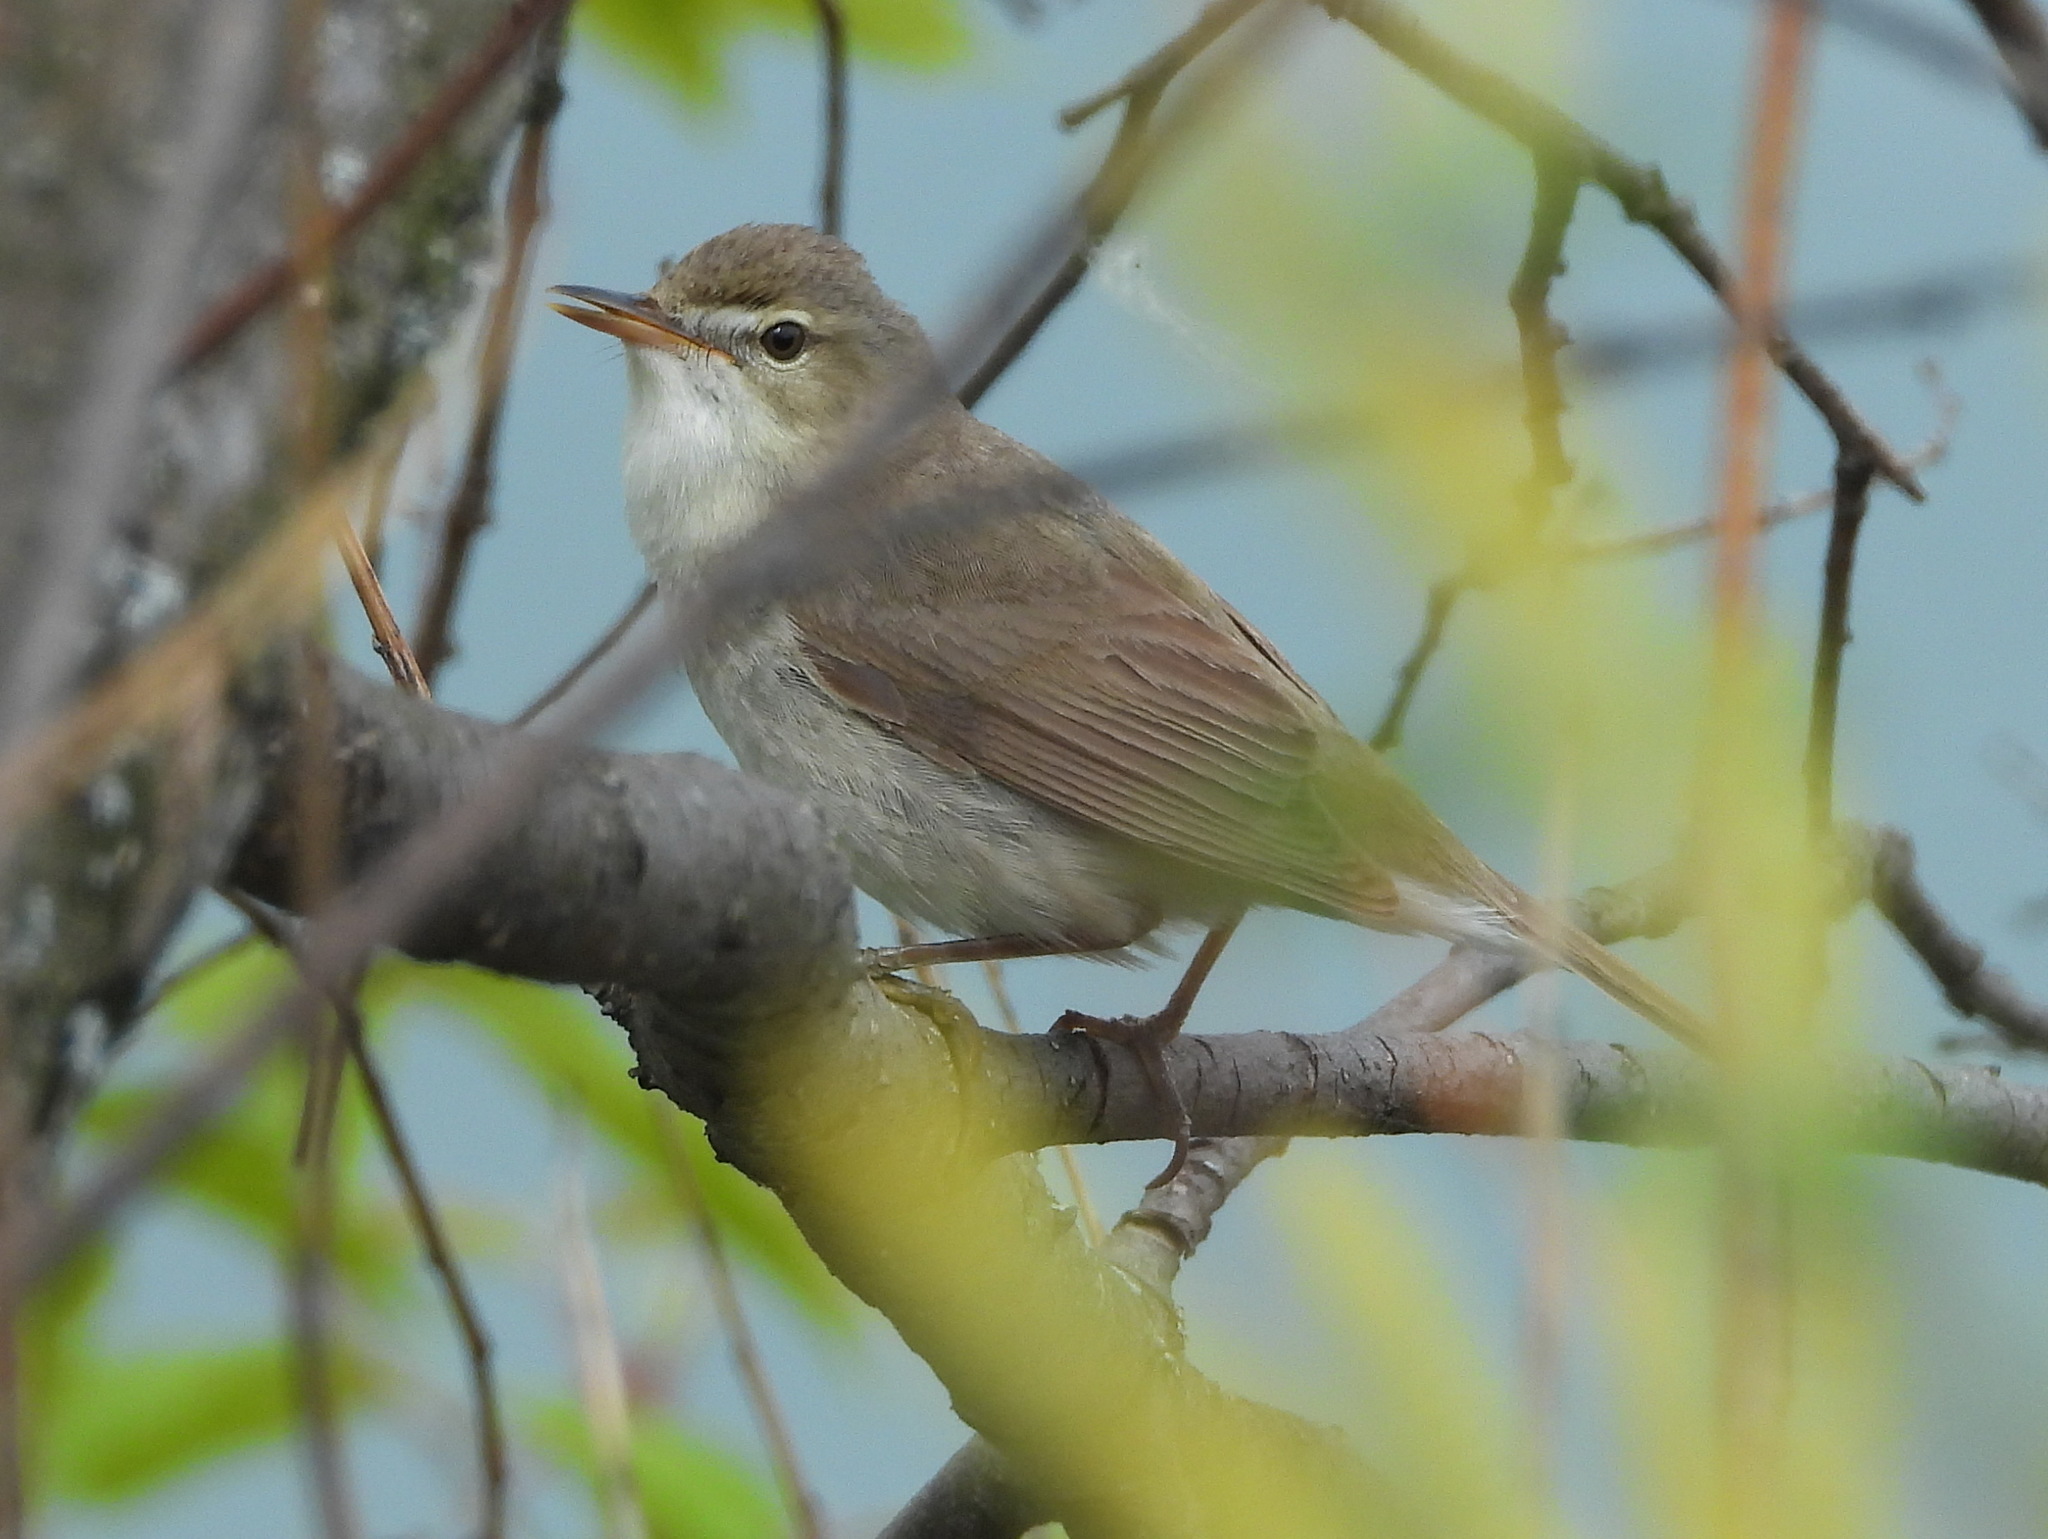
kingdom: Animalia
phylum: Chordata
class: Aves
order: Passeriformes
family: Acrocephalidae
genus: Acrocephalus
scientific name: Acrocephalus dumetorum
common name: Blyth's reed warbler
